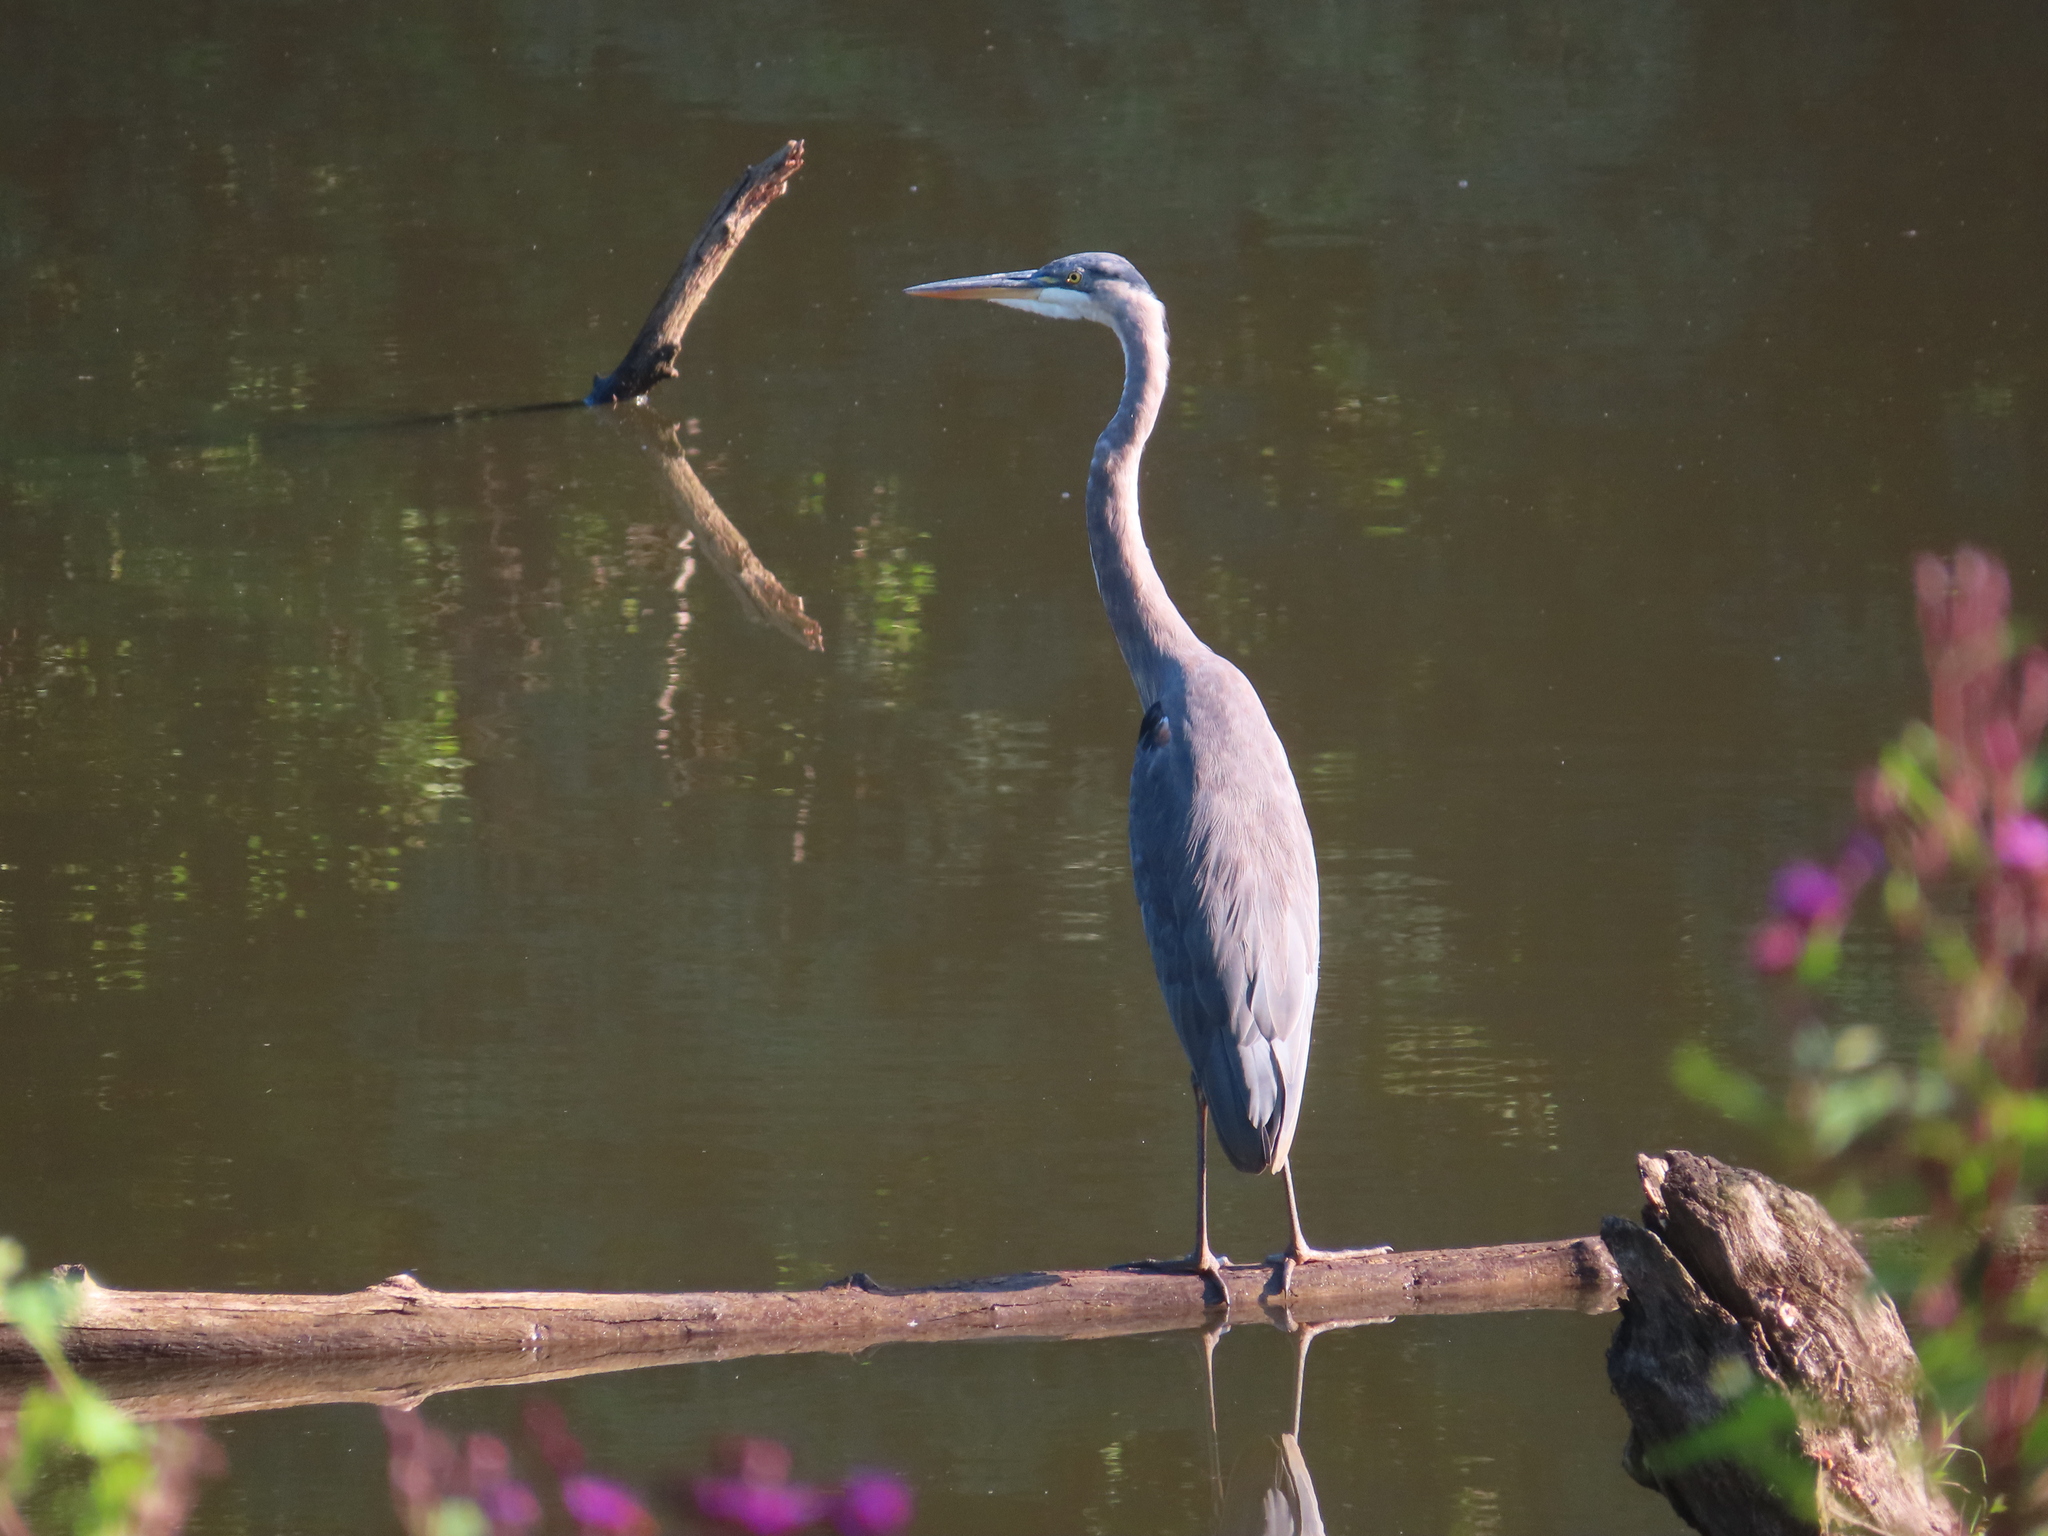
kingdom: Animalia
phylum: Chordata
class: Aves
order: Pelecaniformes
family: Ardeidae
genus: Ardea
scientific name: Ardea herodias
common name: Great blue heron
